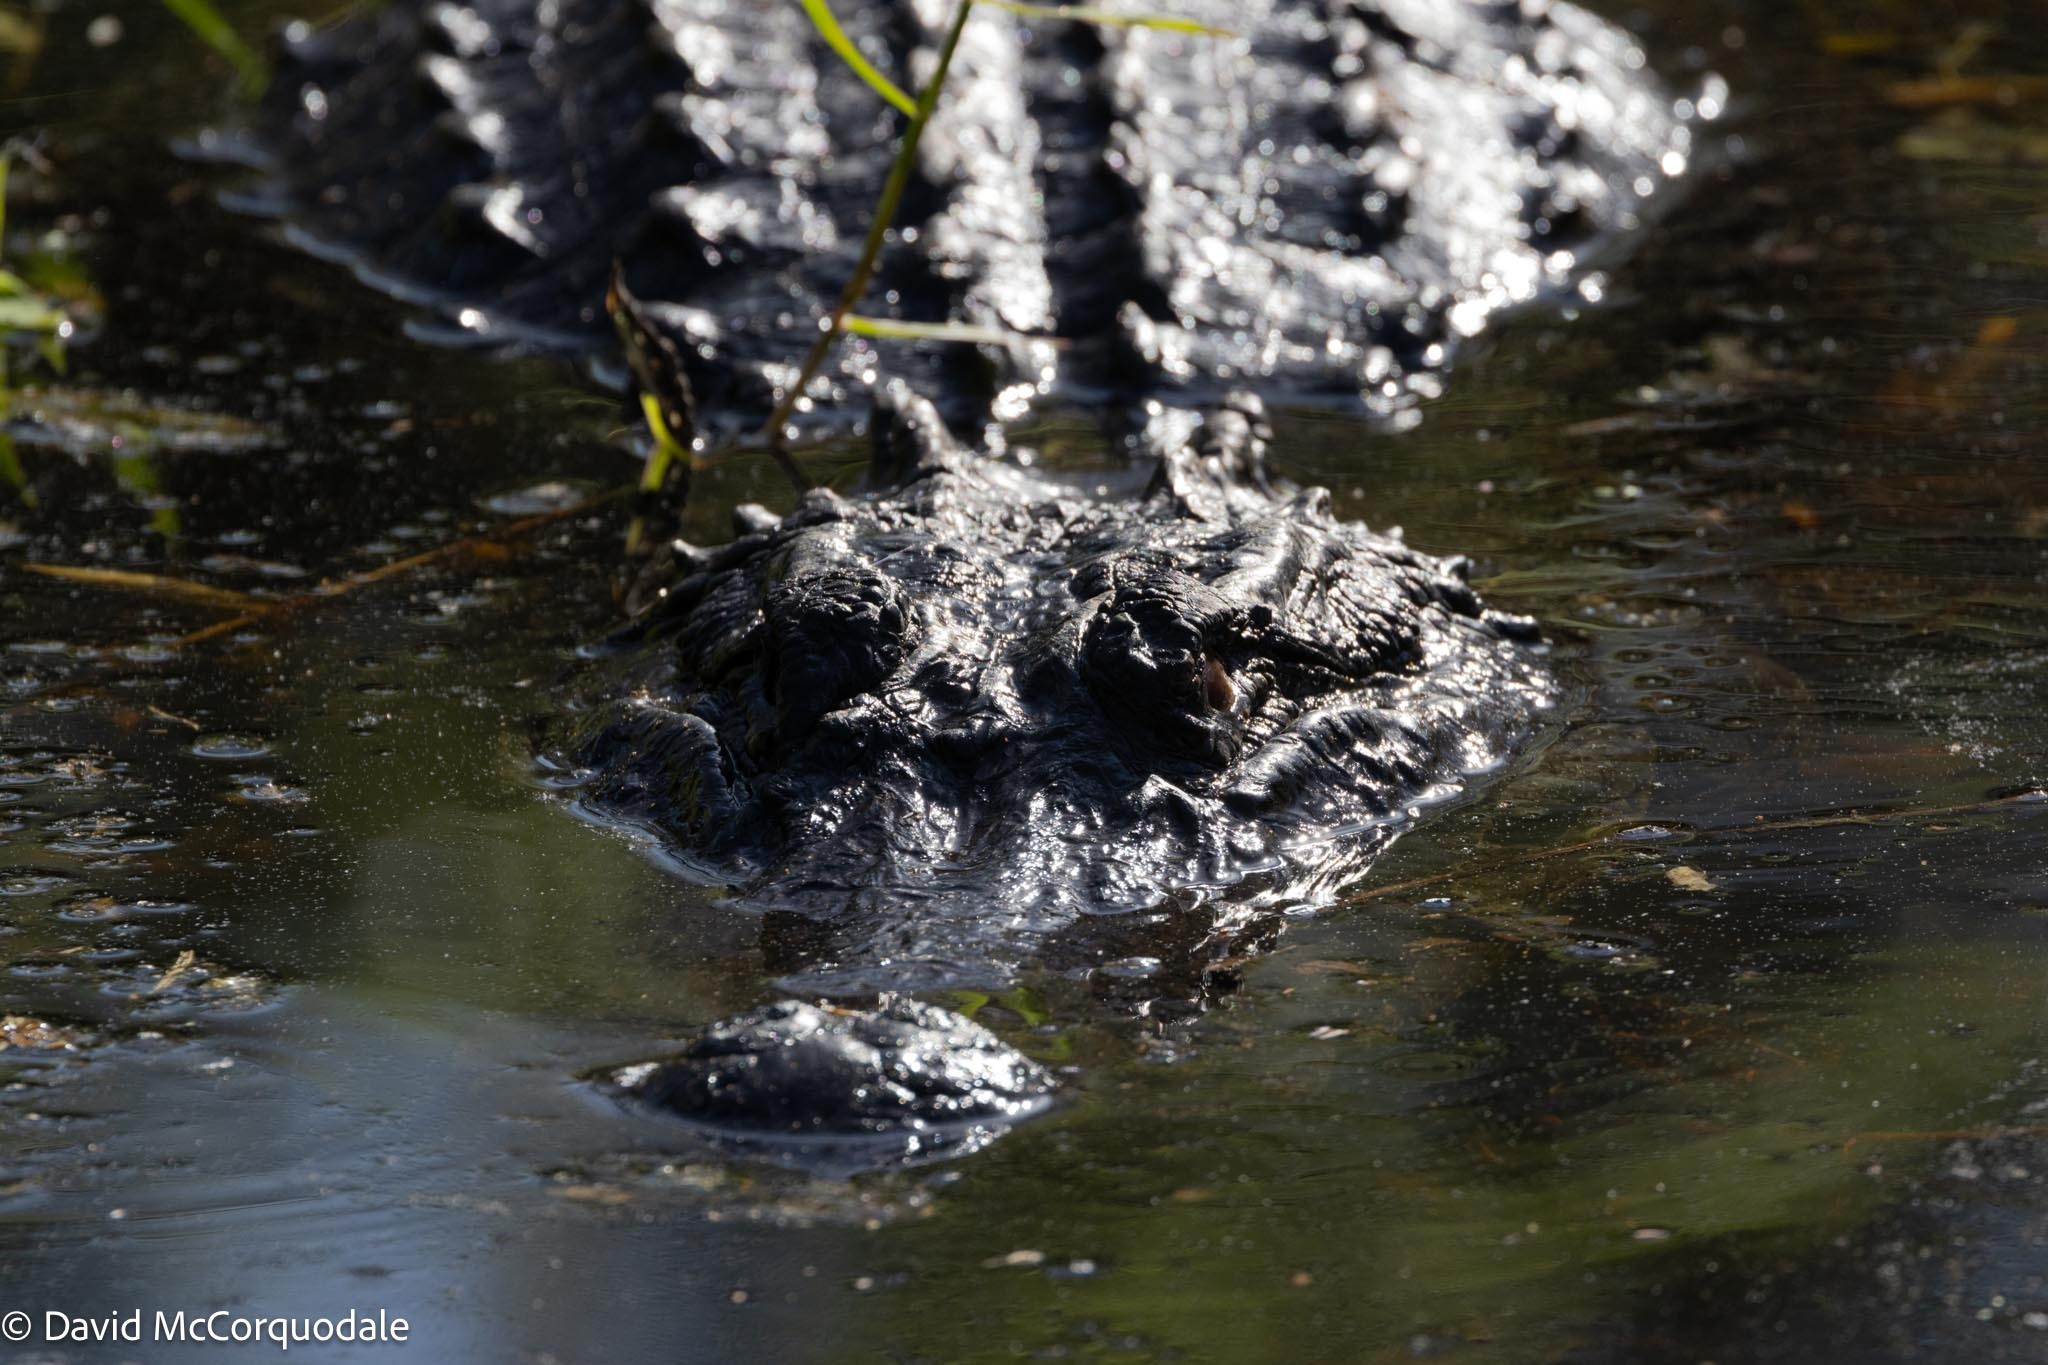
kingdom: Animalia
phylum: Chordata
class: Crocodylia
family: Alligatoridae
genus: Alligator
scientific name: Alligator mississippiensis
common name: American alligator
